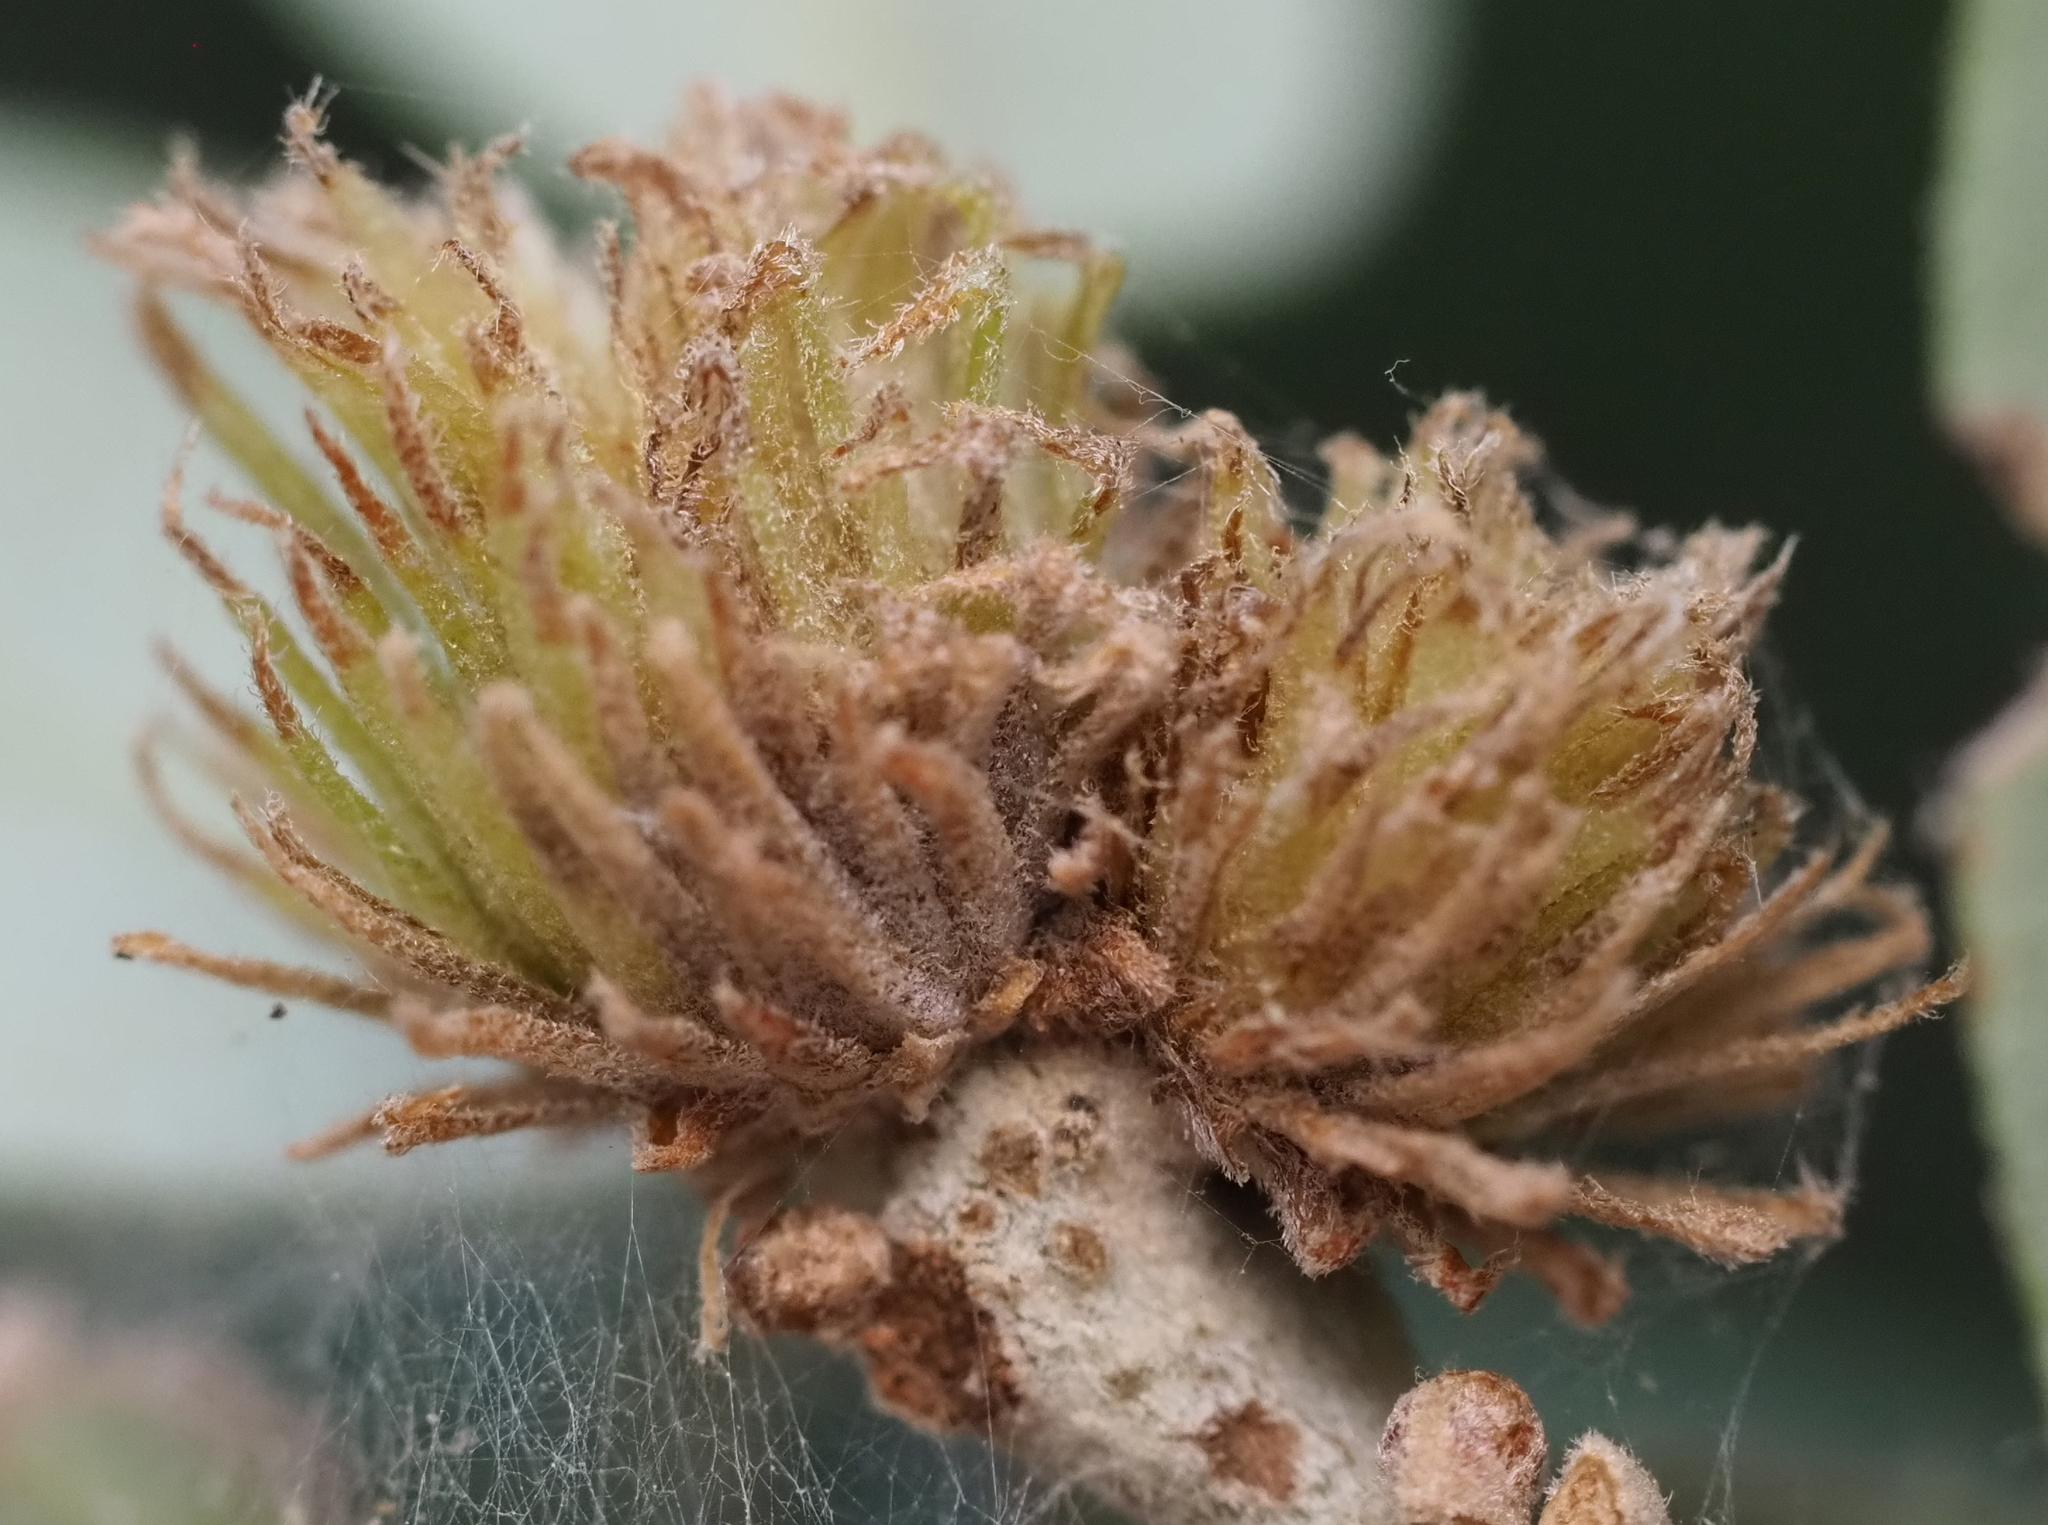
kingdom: Animalia
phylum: Arthropoda
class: Insecta
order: Hymenoptera
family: Cynipidae
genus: Andricus
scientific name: Andricus quercusfoliatus
